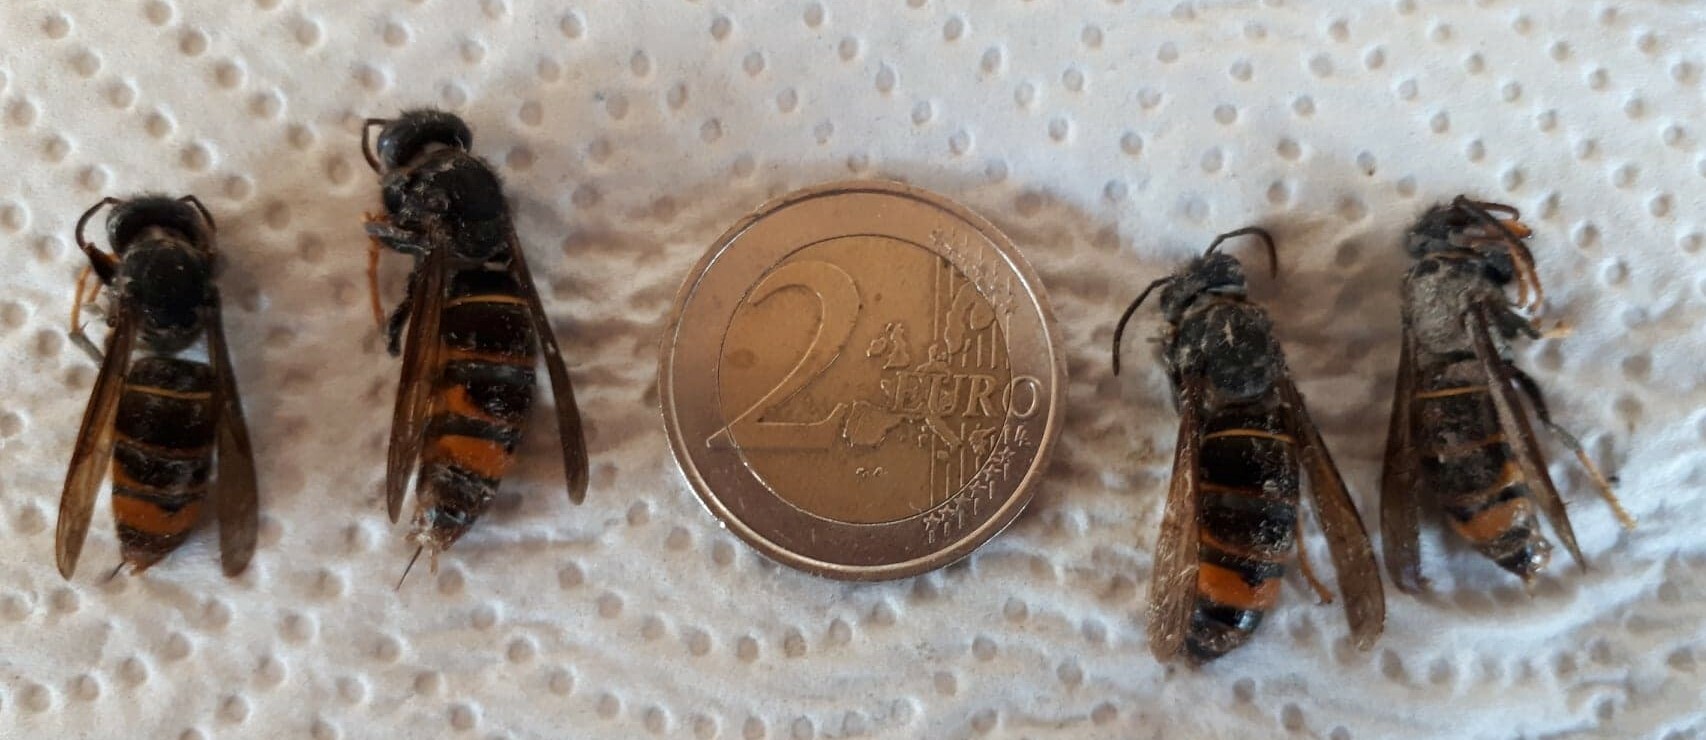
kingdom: Animalia
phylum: Arthropoda
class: Insecta
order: Hymenoptera
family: Vespidae
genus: Vespa
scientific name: Vespa velutina
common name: Asian hornet
